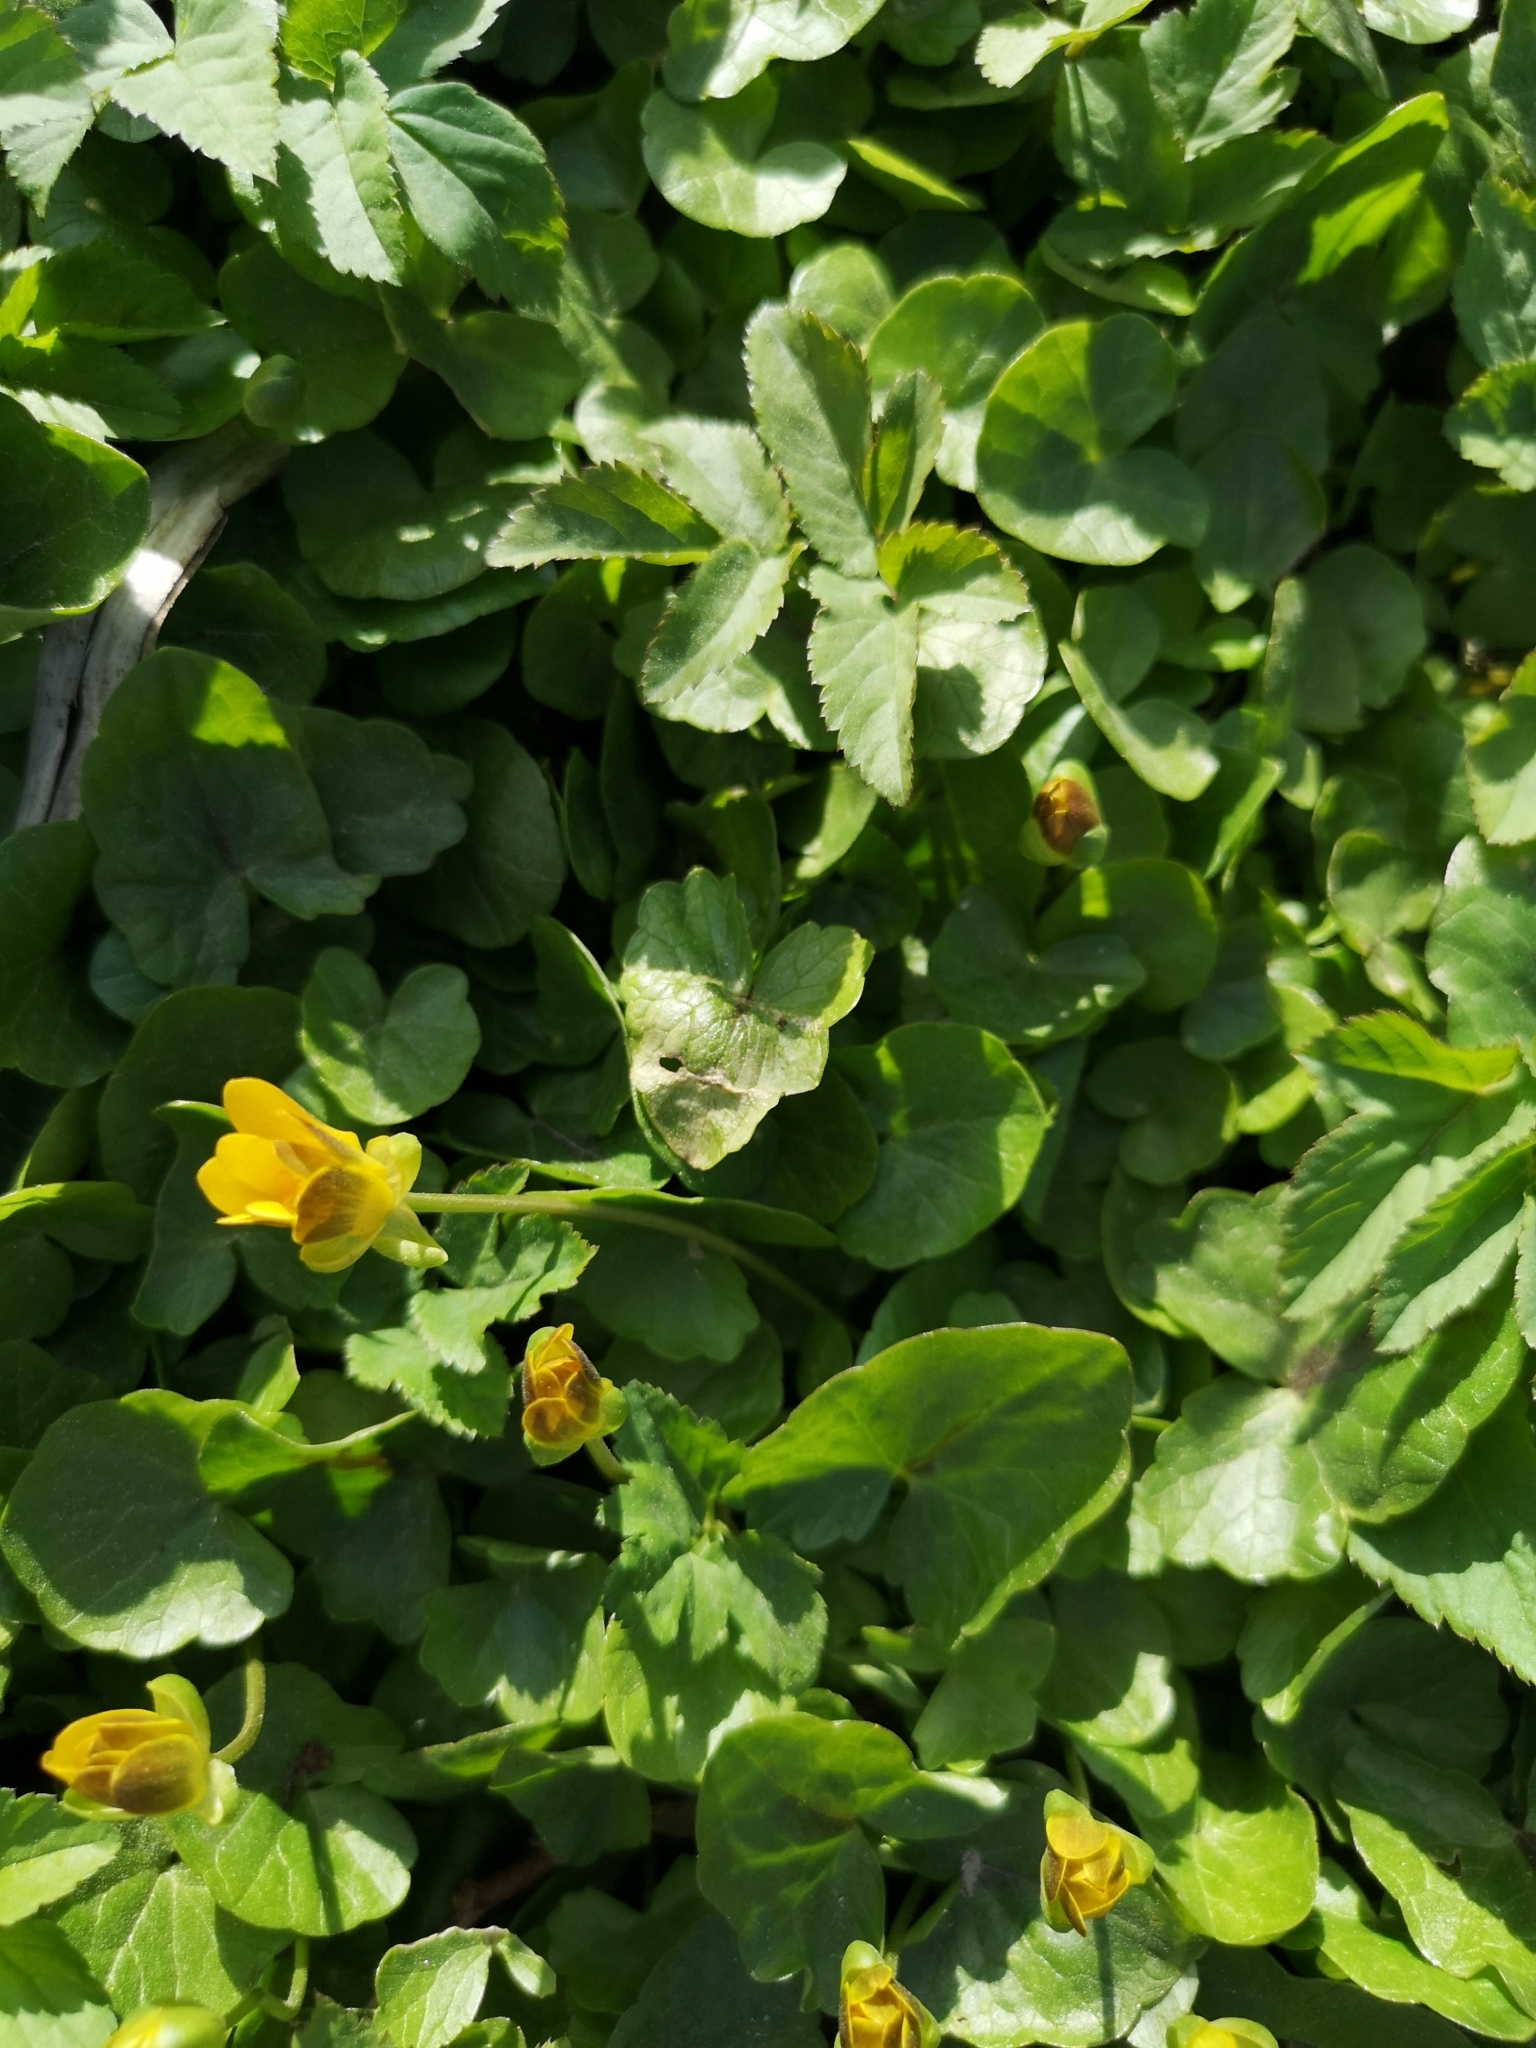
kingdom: Plantae
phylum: Tracheophyta
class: Magnoliopsida
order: Ranunculales
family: Ranunculaceae
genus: Ficaria
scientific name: Ficaria verna
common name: Lesser celandine
